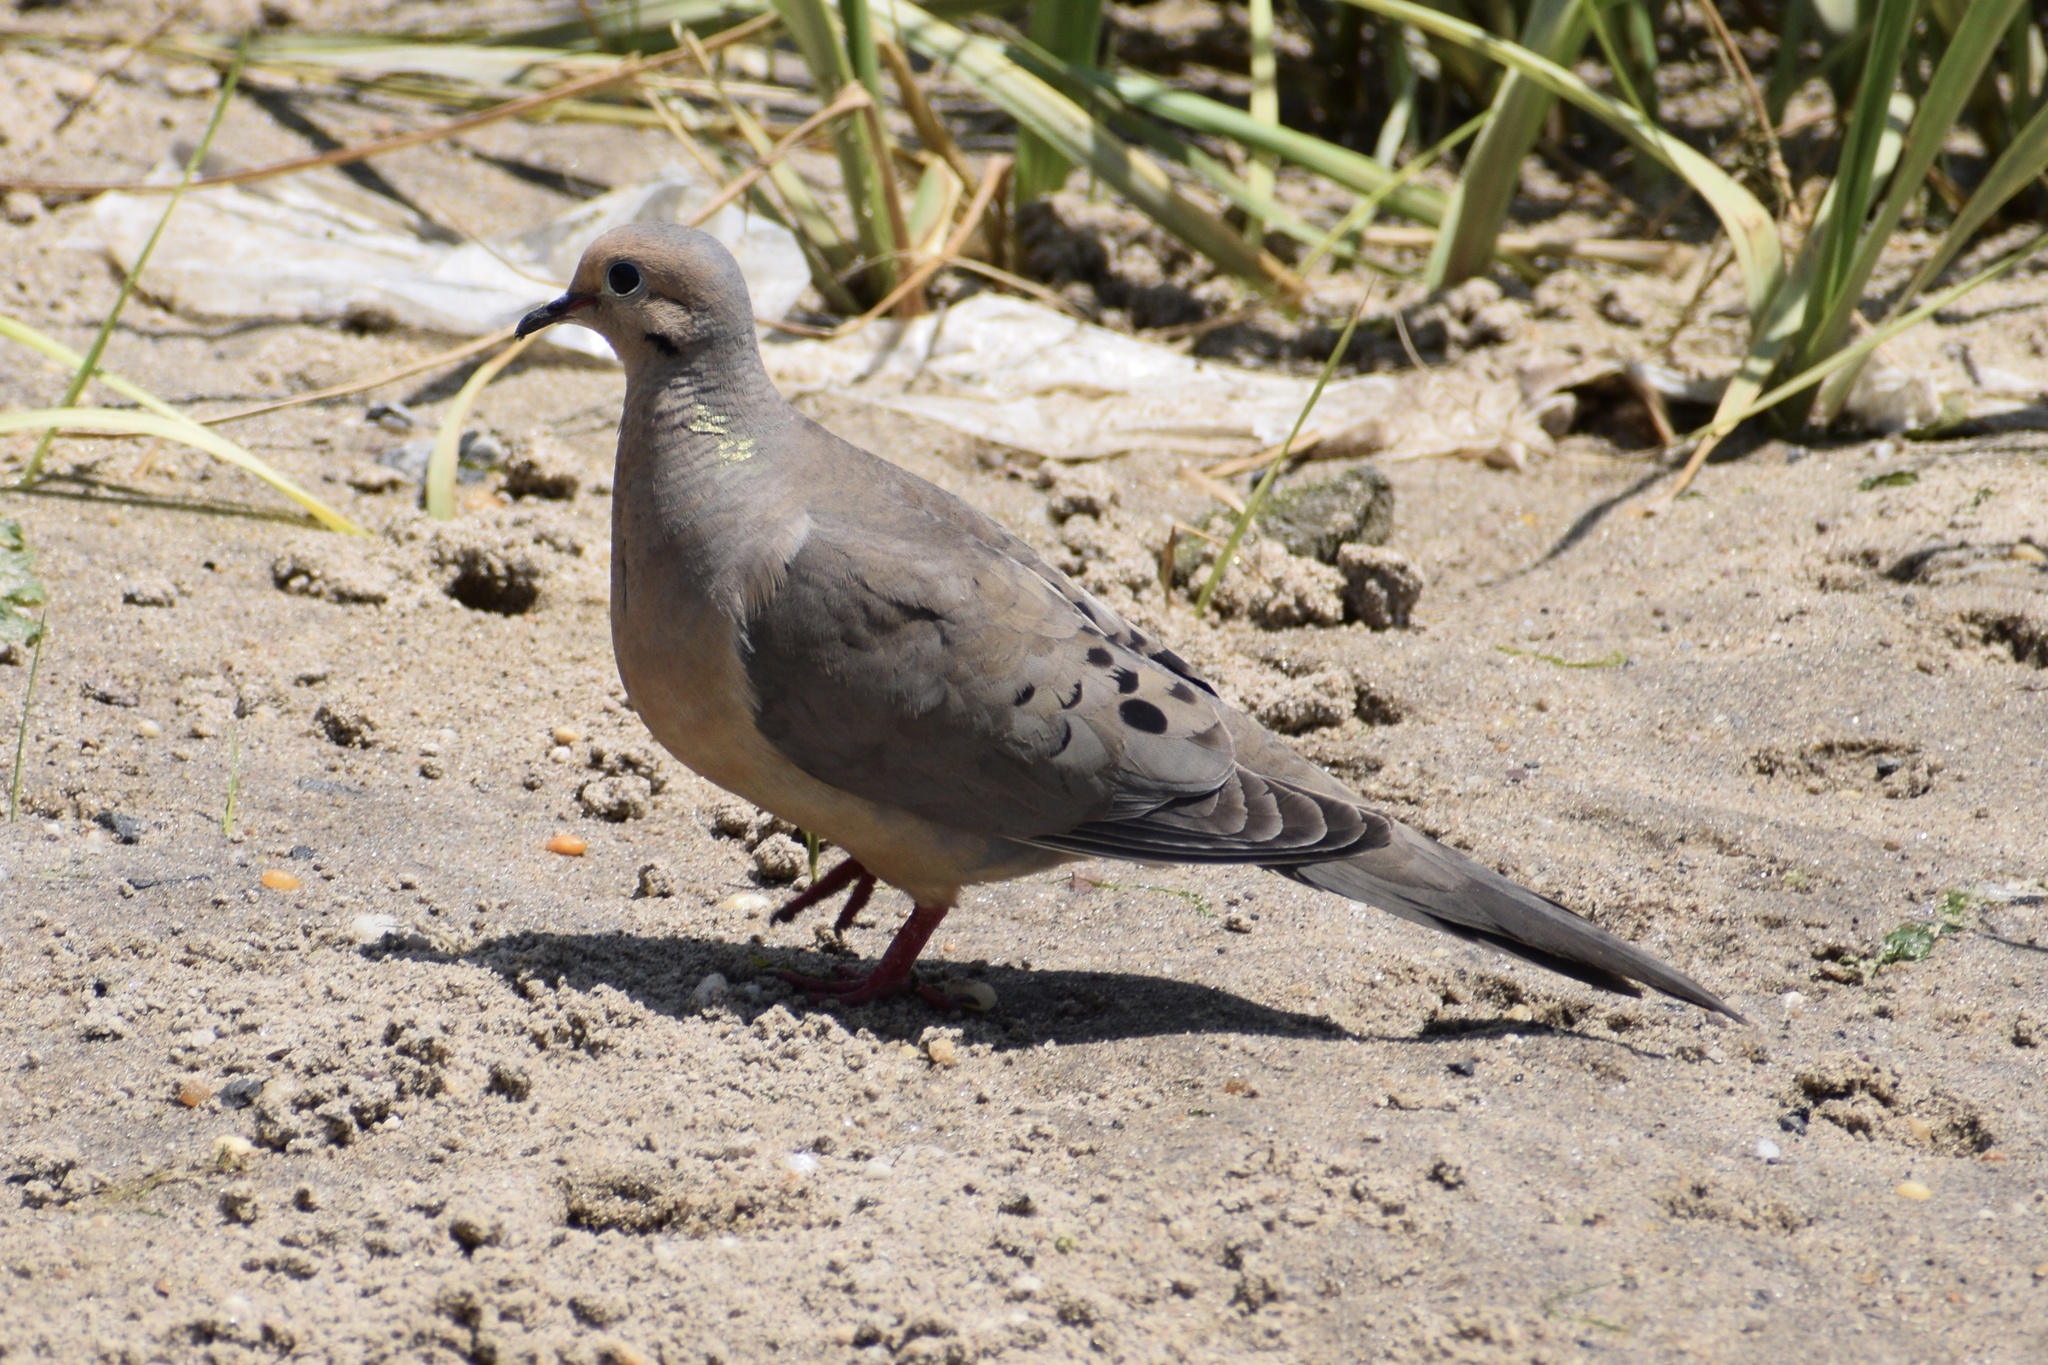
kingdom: Animalia
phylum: Chordata
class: Aves
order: Columbiformes
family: Columbidae
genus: Zenaida
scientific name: Zenaida macroura
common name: Mourning dove
